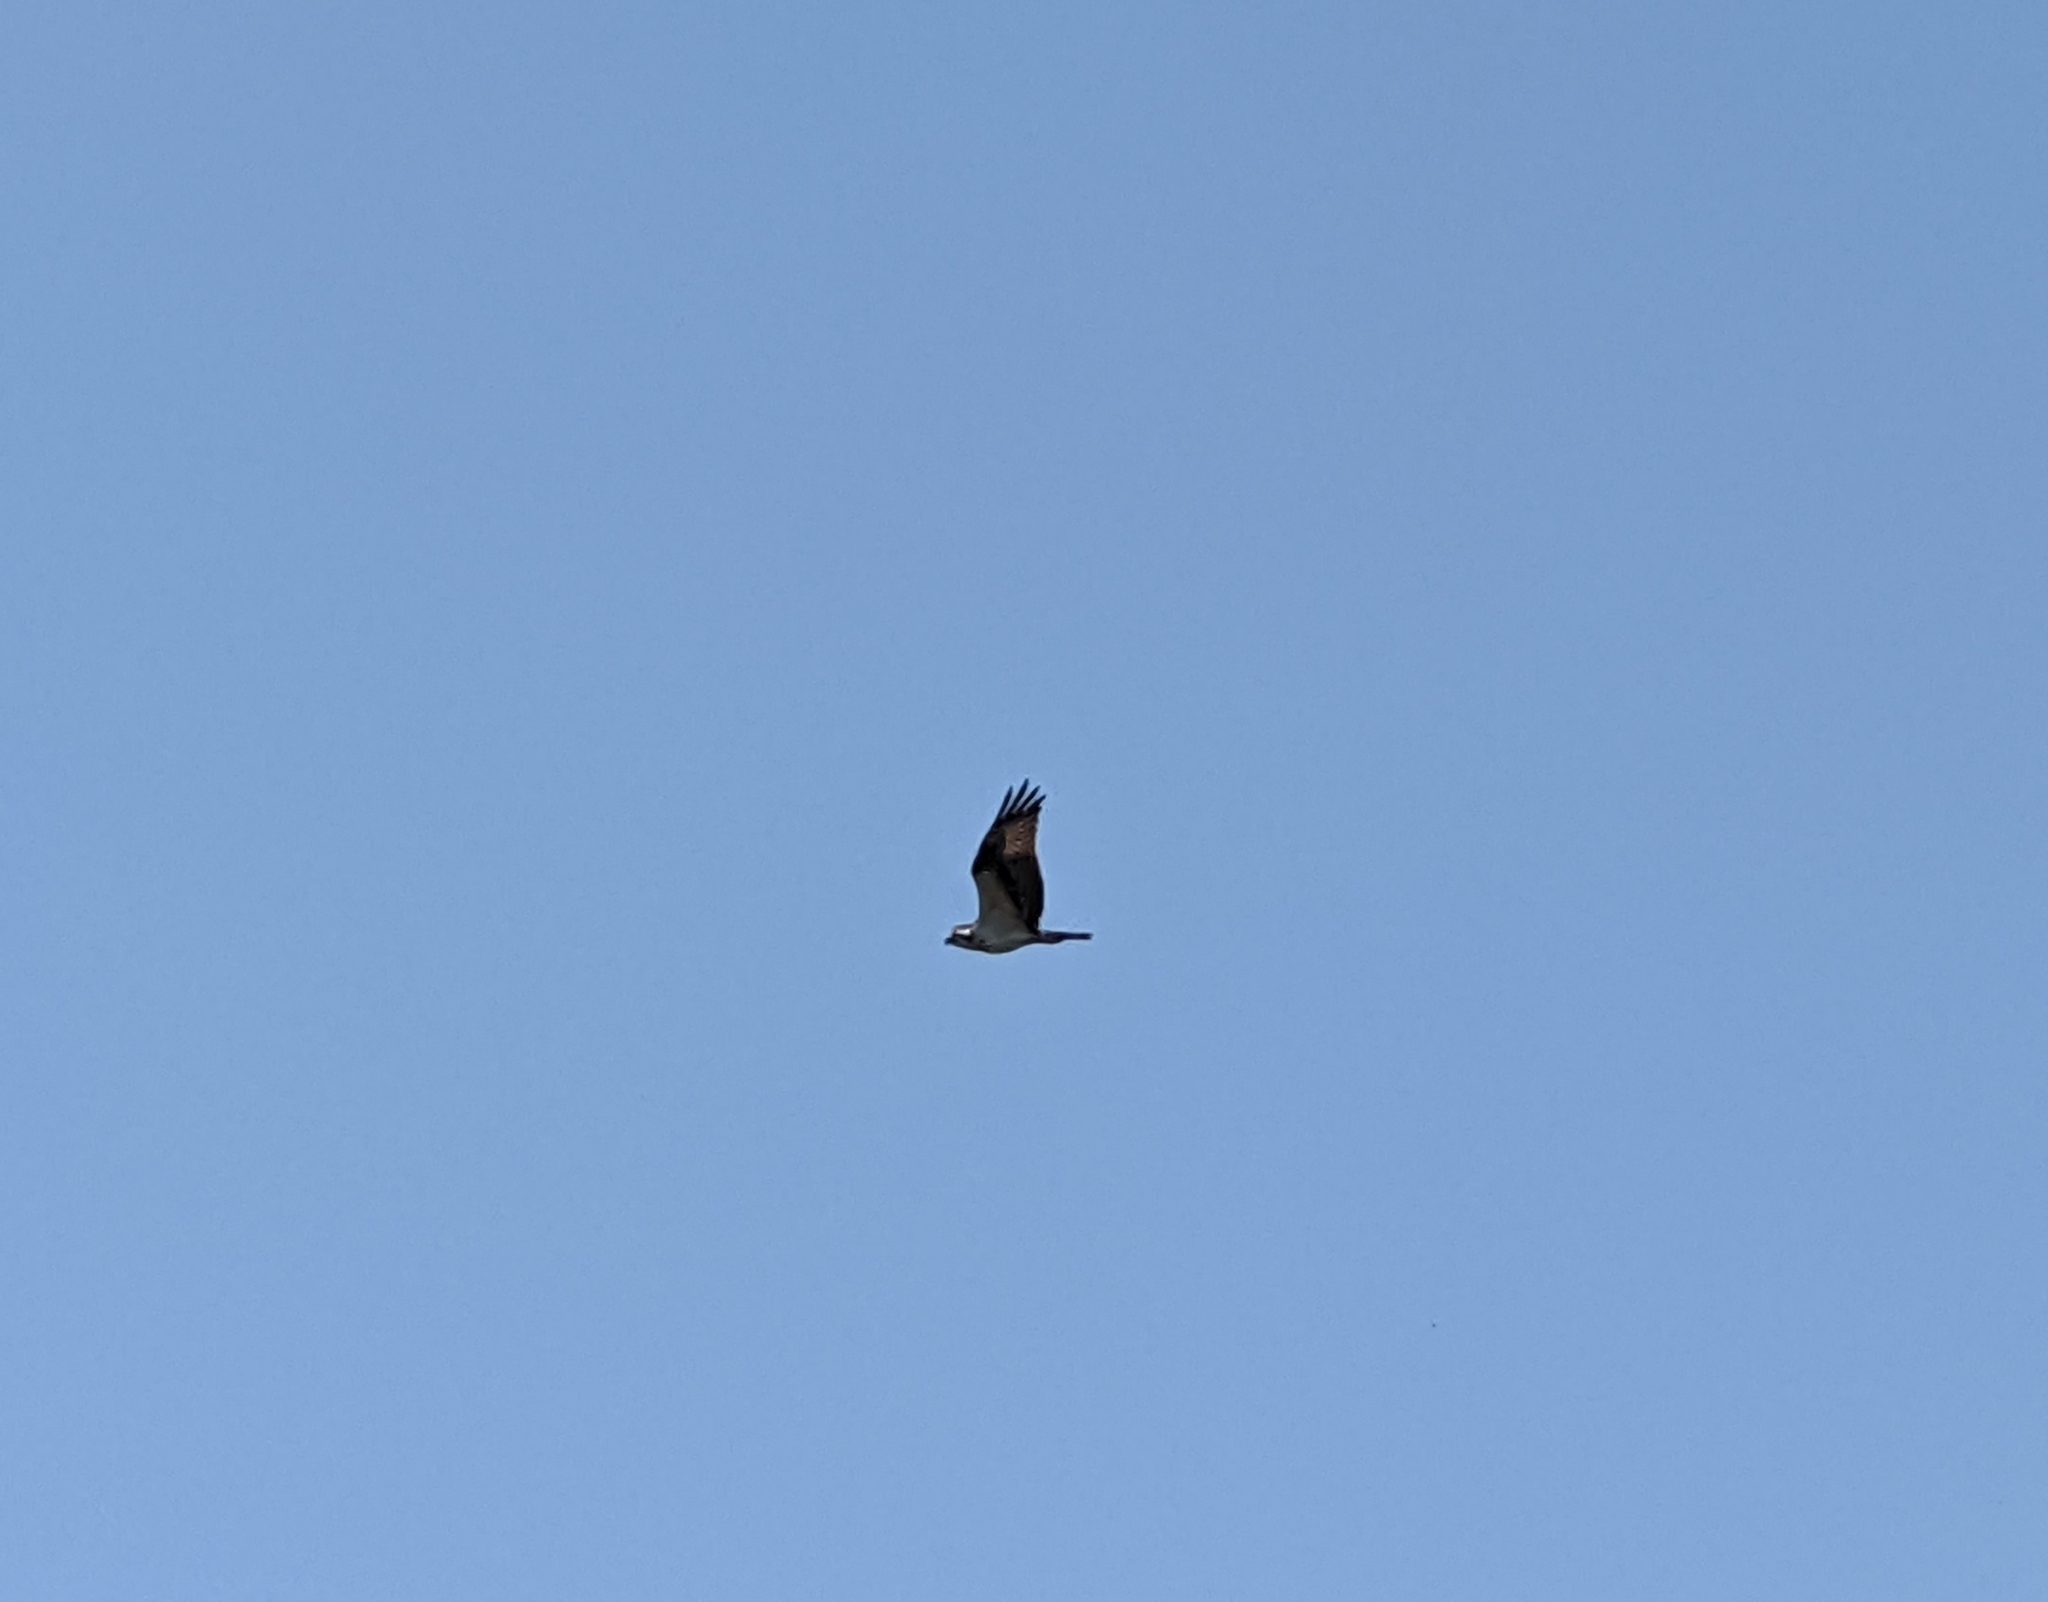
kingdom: Animalia
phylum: Chordata
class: Aves
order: Accipitriformes
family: Pandionidae
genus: Pandion
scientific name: Pandion haliaetus
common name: Osprey
